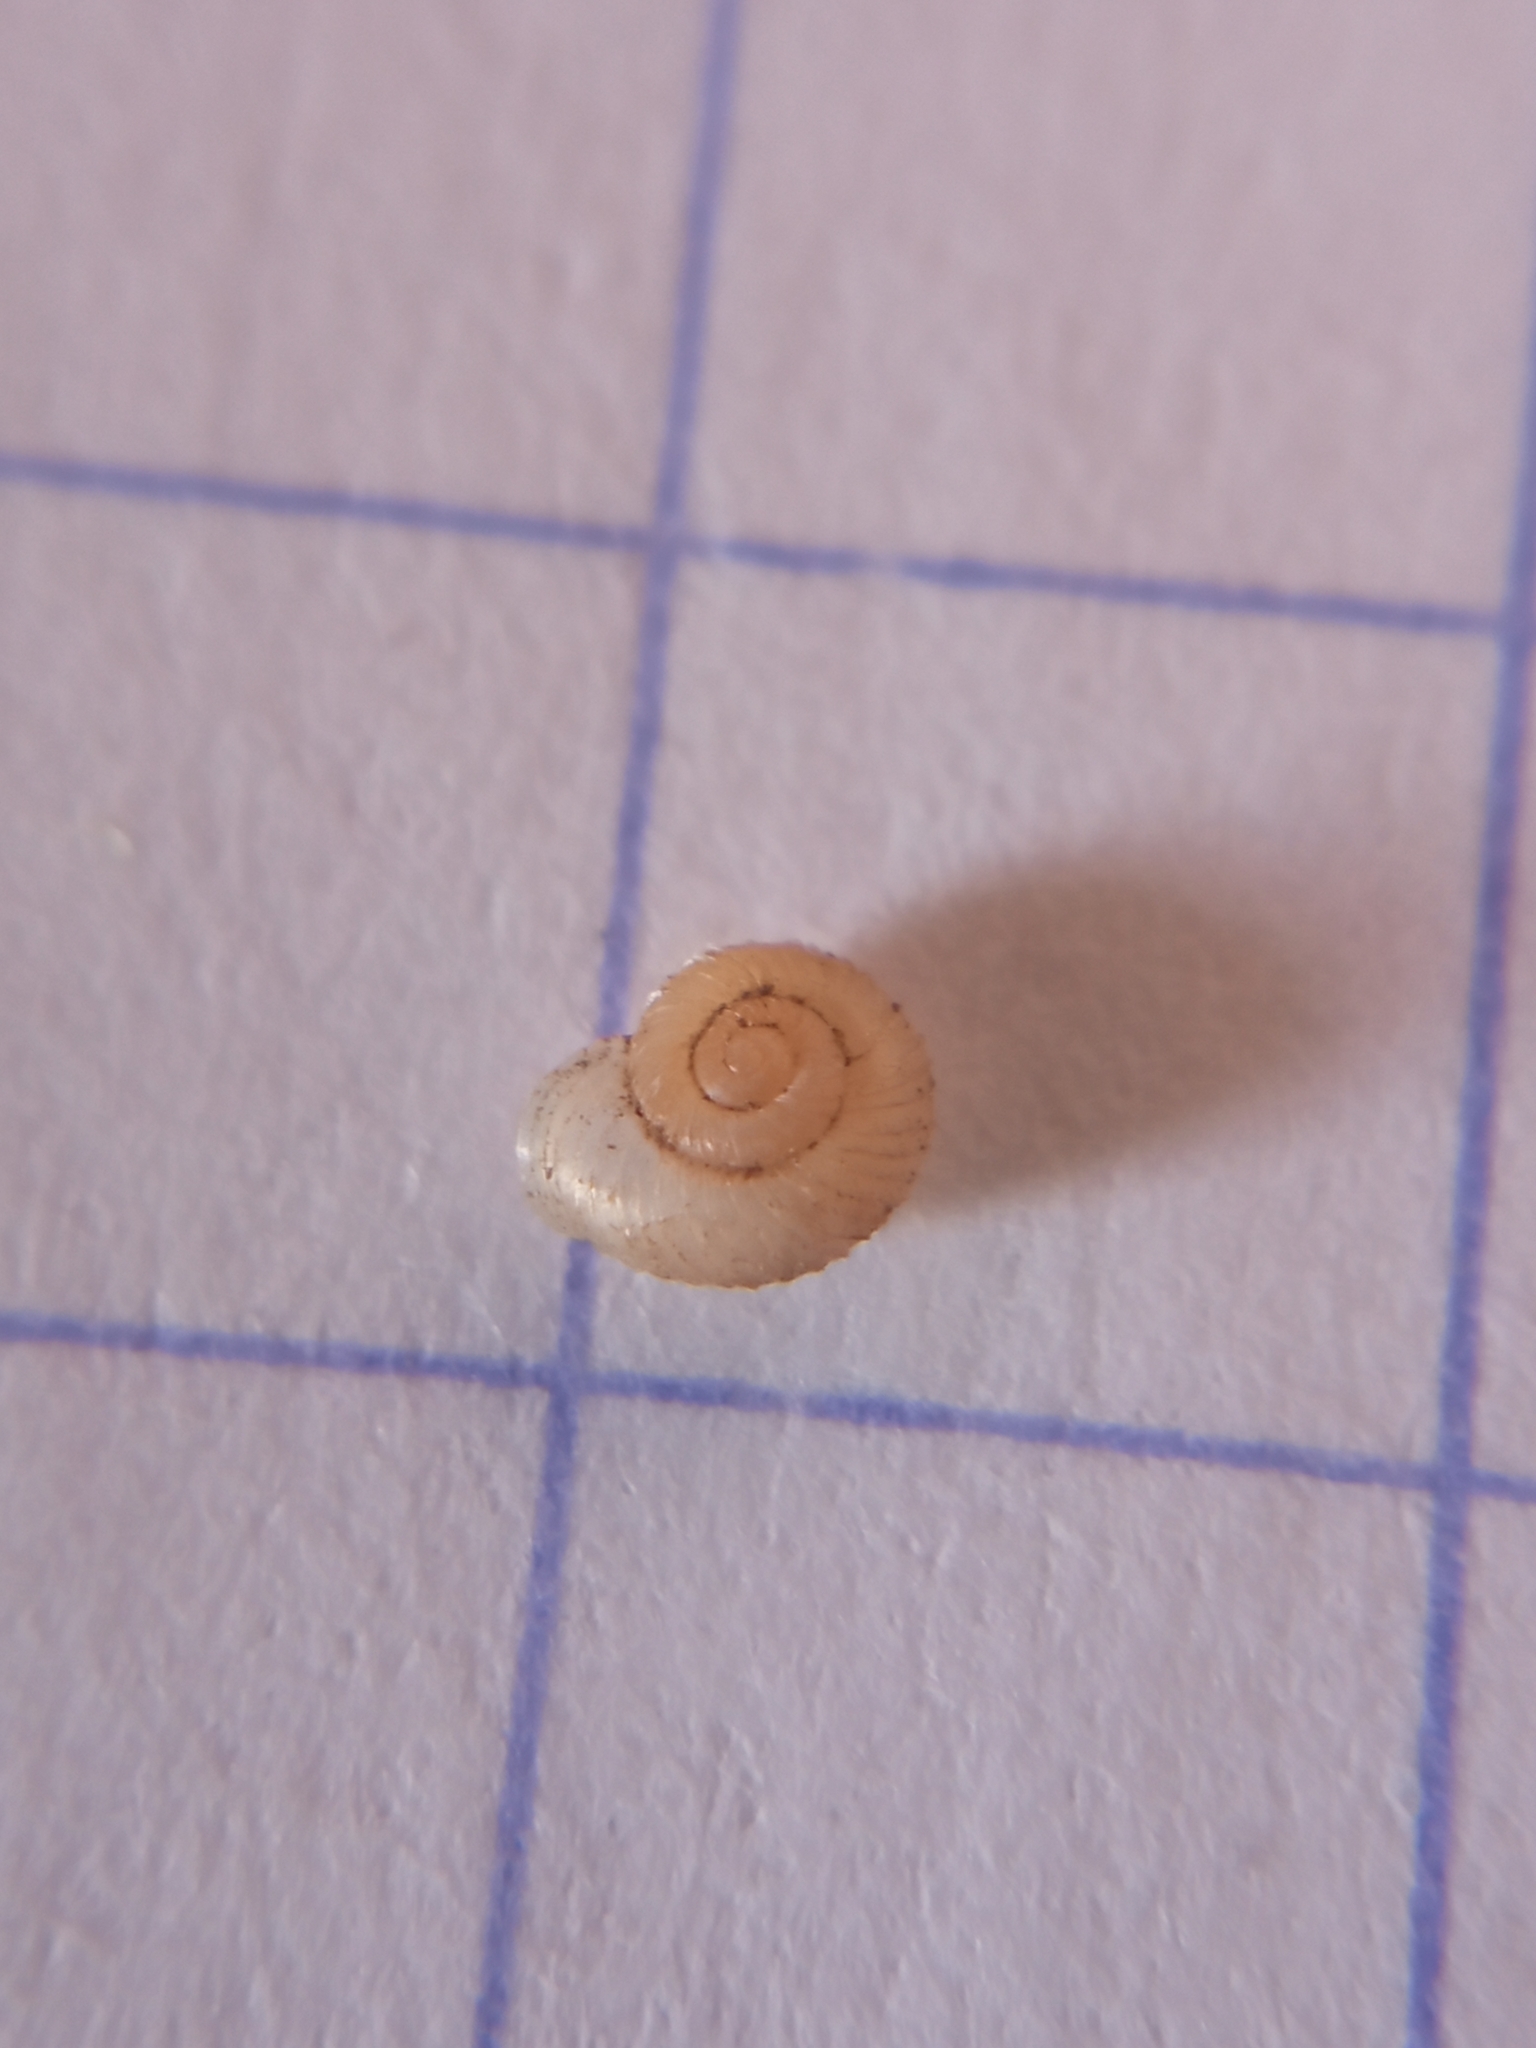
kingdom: Animalia
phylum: Mollusca
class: Gastropoda
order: Stylommatophora
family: Valloniidae
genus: Vallonia
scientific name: Vallonia costata
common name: Ribbed grass snail
